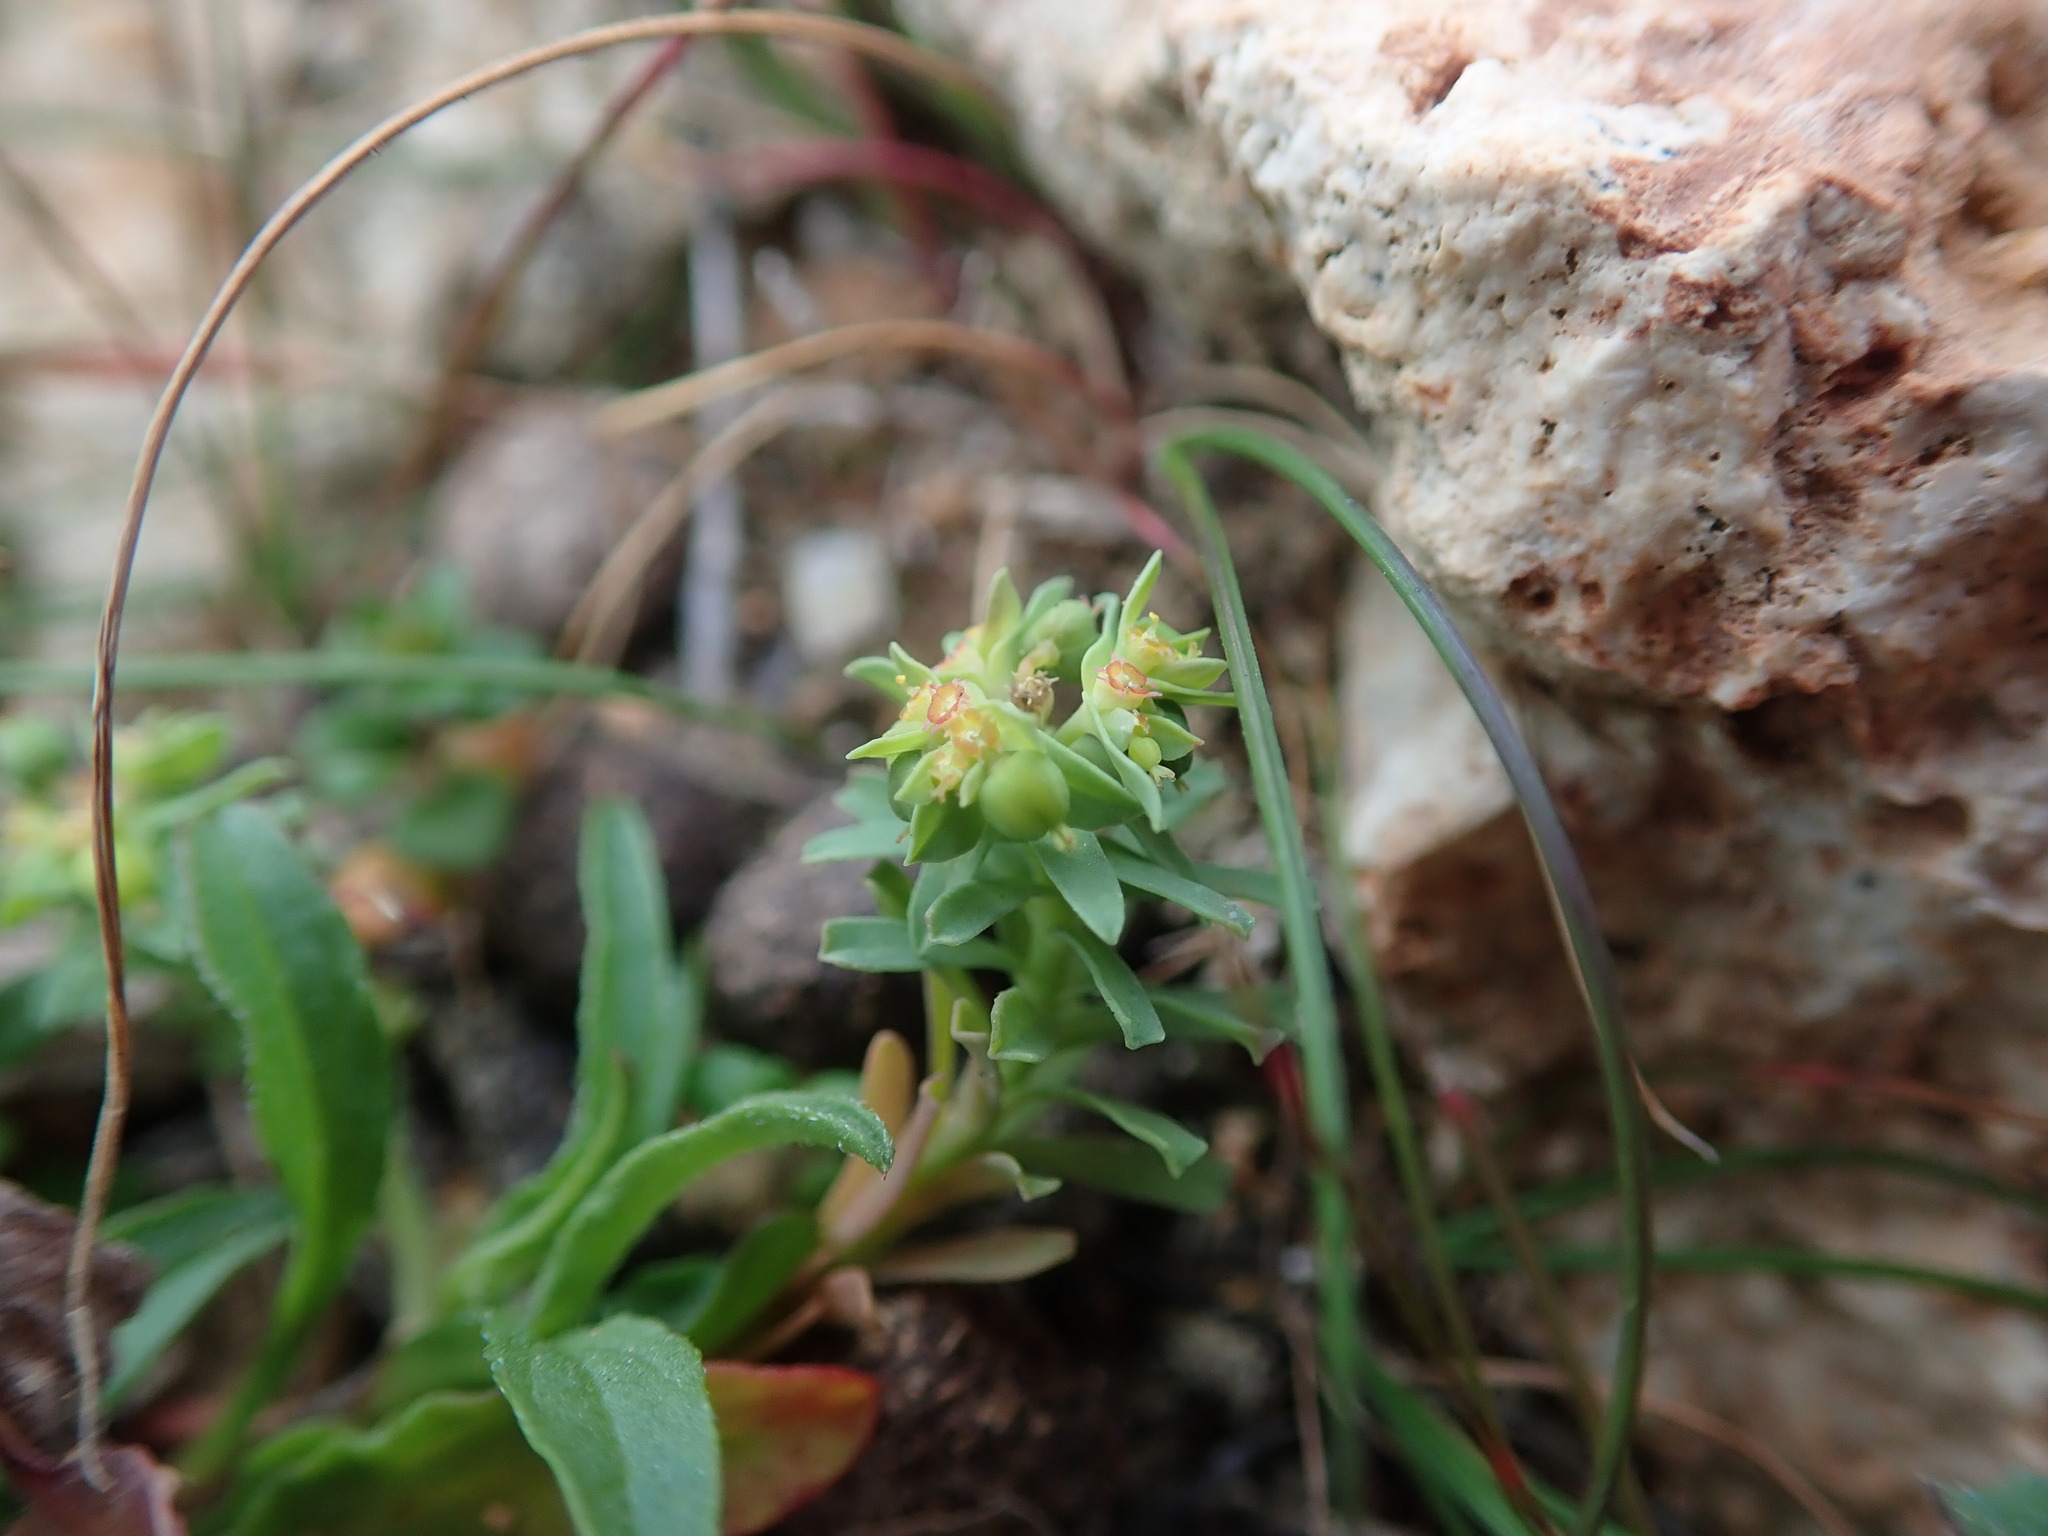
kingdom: Plantae
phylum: Tracheophyta
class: Magnoliopsida
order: Malpighiales
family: Euphorbiaceae
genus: Euphorbia
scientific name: Euphorbia exigua
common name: Dwarf spurge
